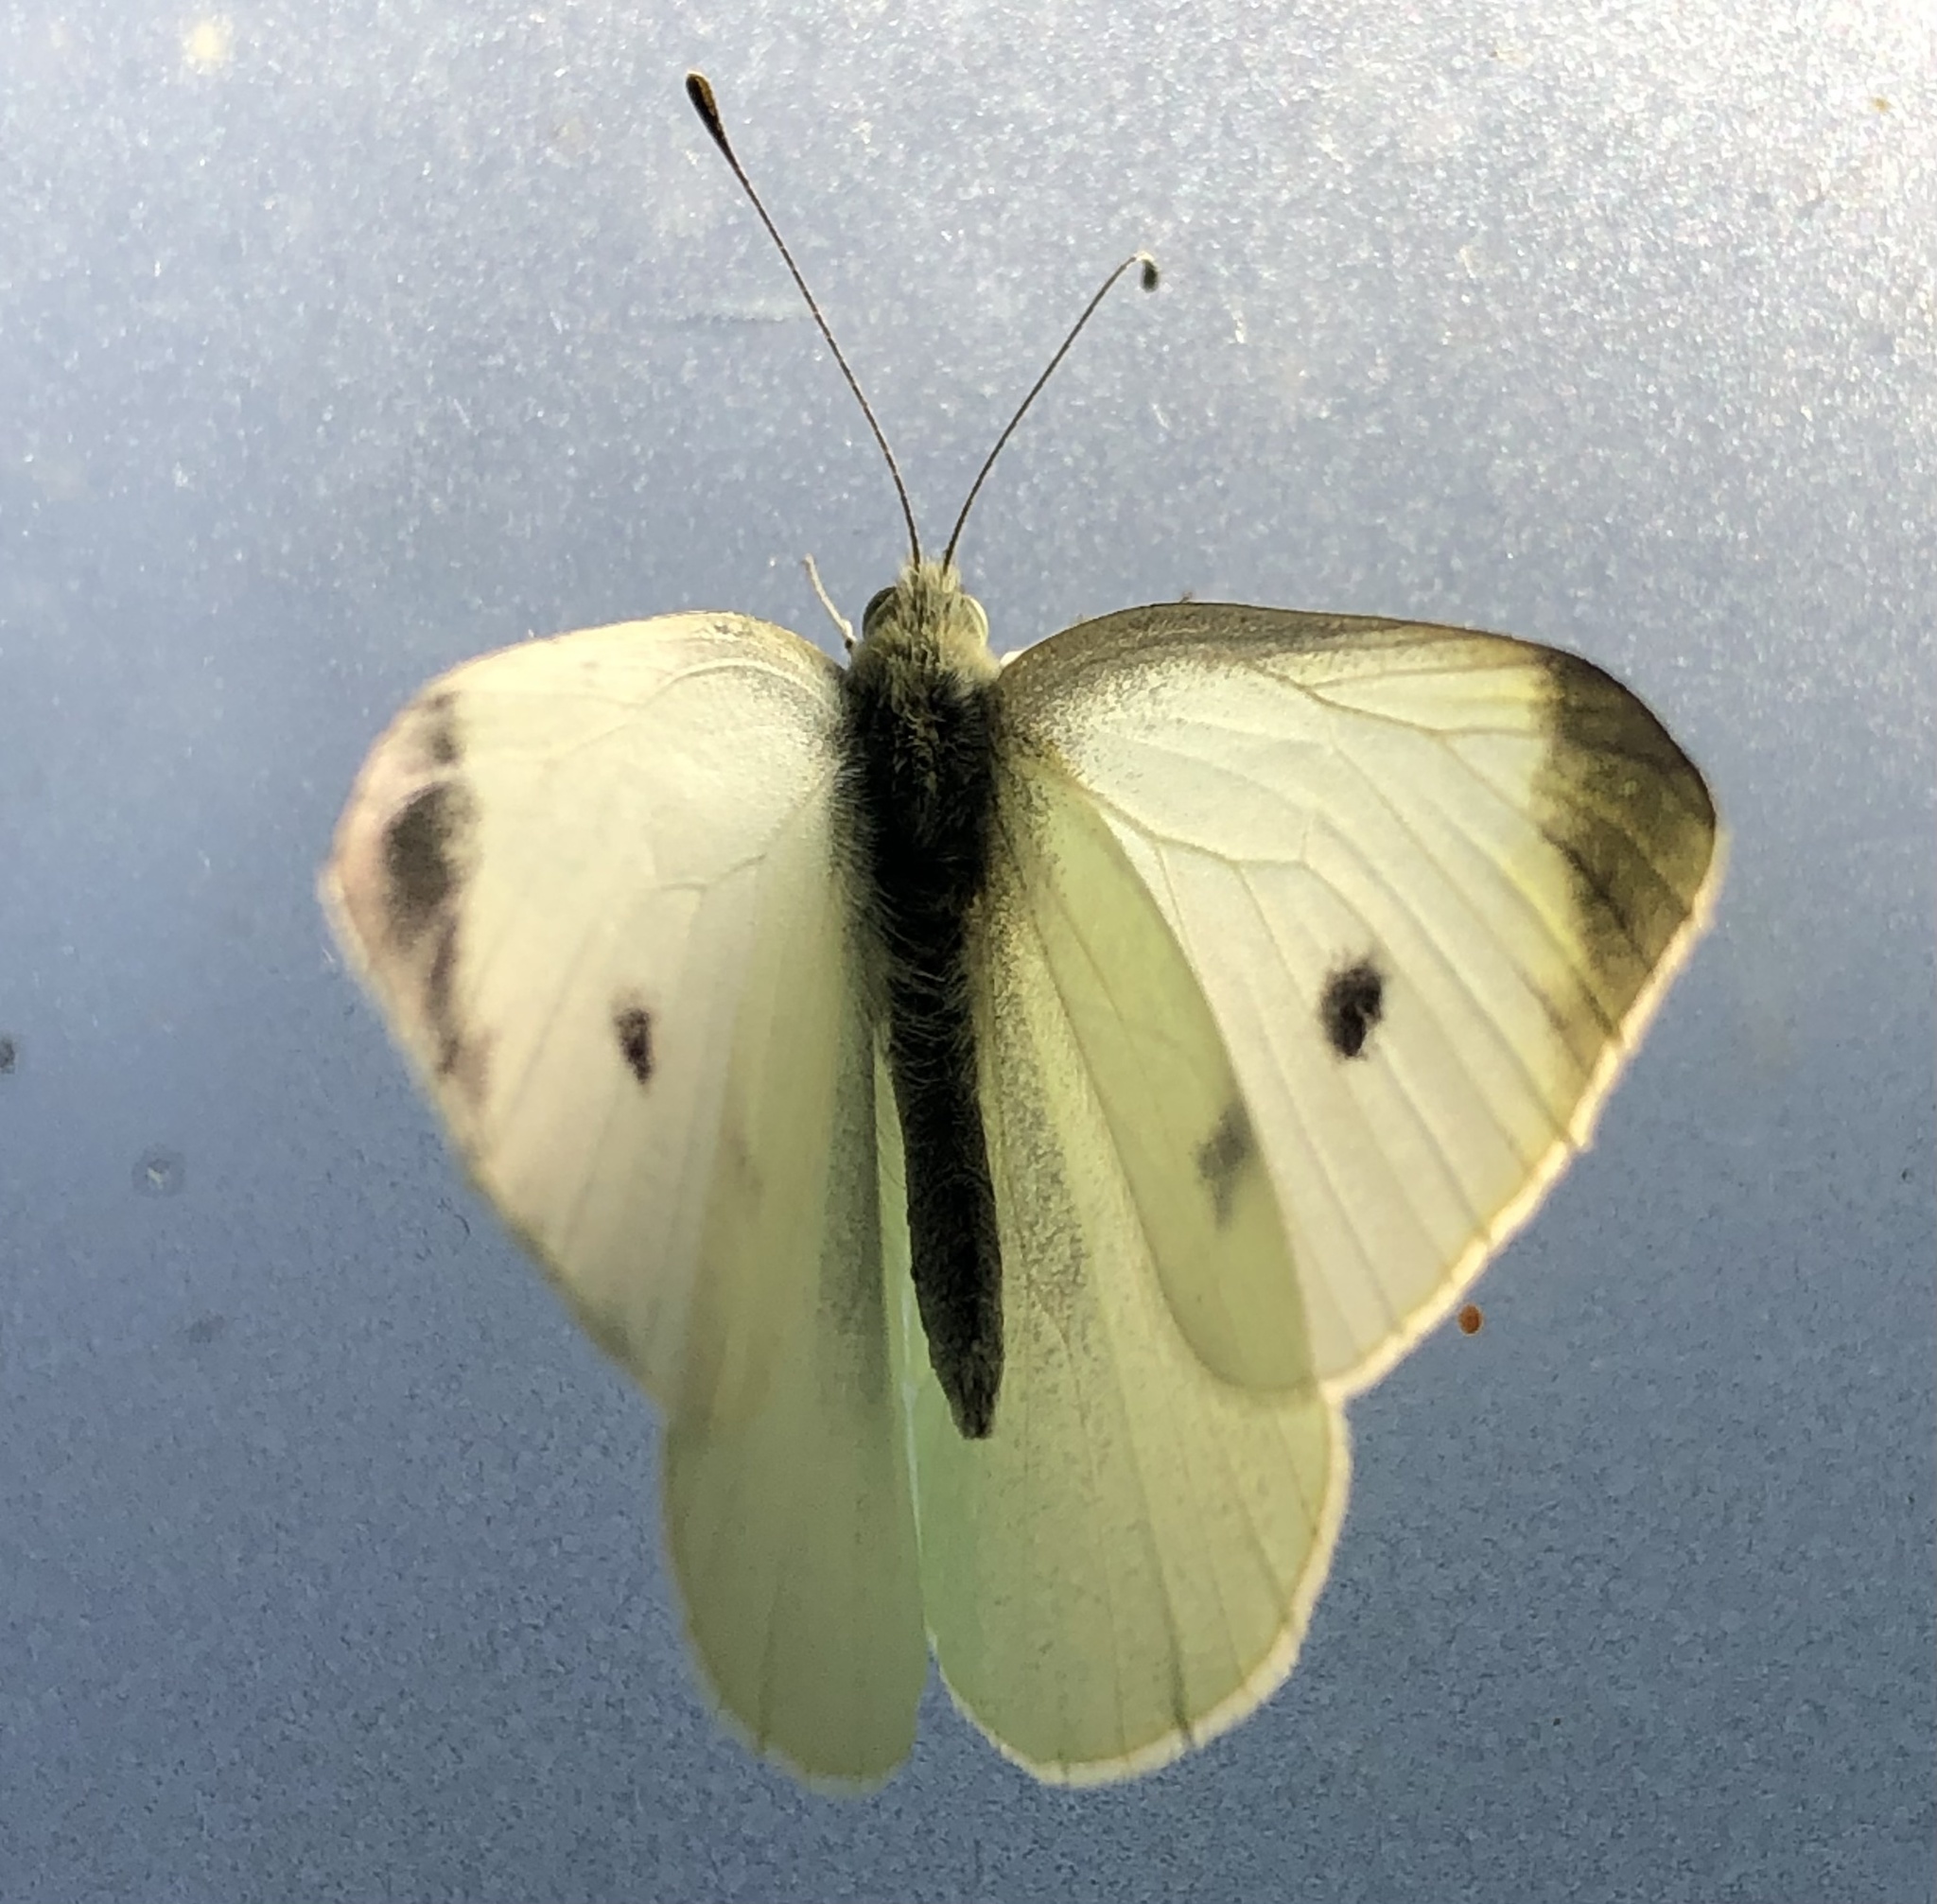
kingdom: Animalia
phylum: Arthropoda
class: Insecta
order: Lepidoptera
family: Pieridae
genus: Pieris
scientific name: Pieris rapae
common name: Small white
